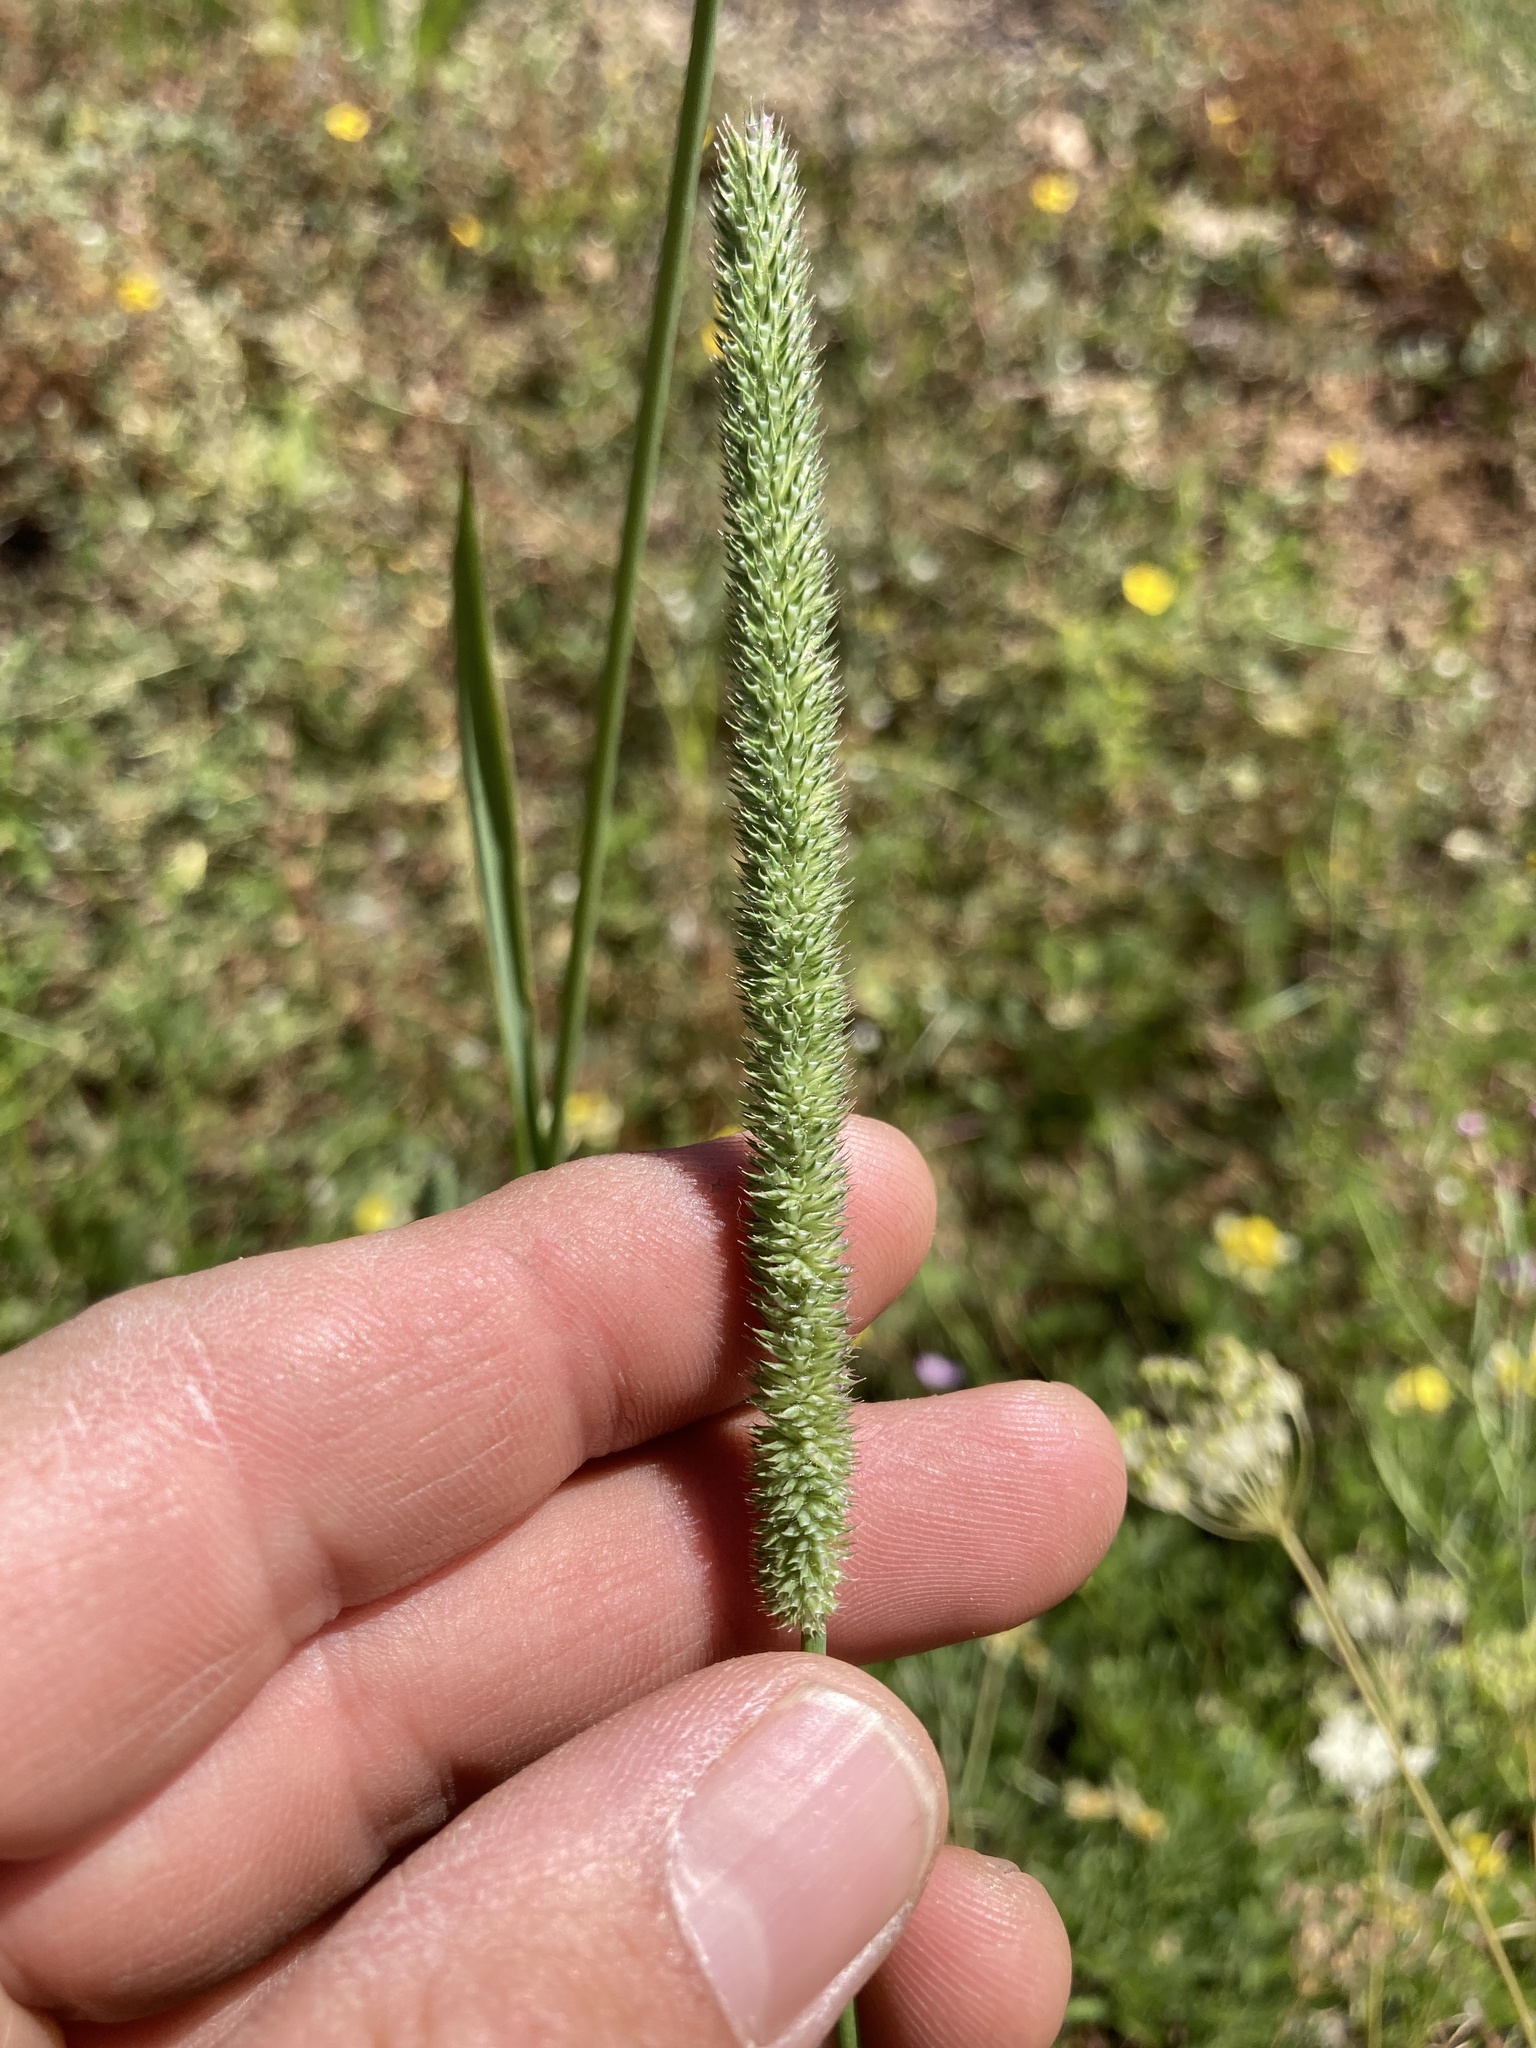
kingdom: Plantae
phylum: Tracheophyta
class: Liliopsida
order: Poales
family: Poaceae
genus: Phleum
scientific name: Phleum pratense
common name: Timothy grass
